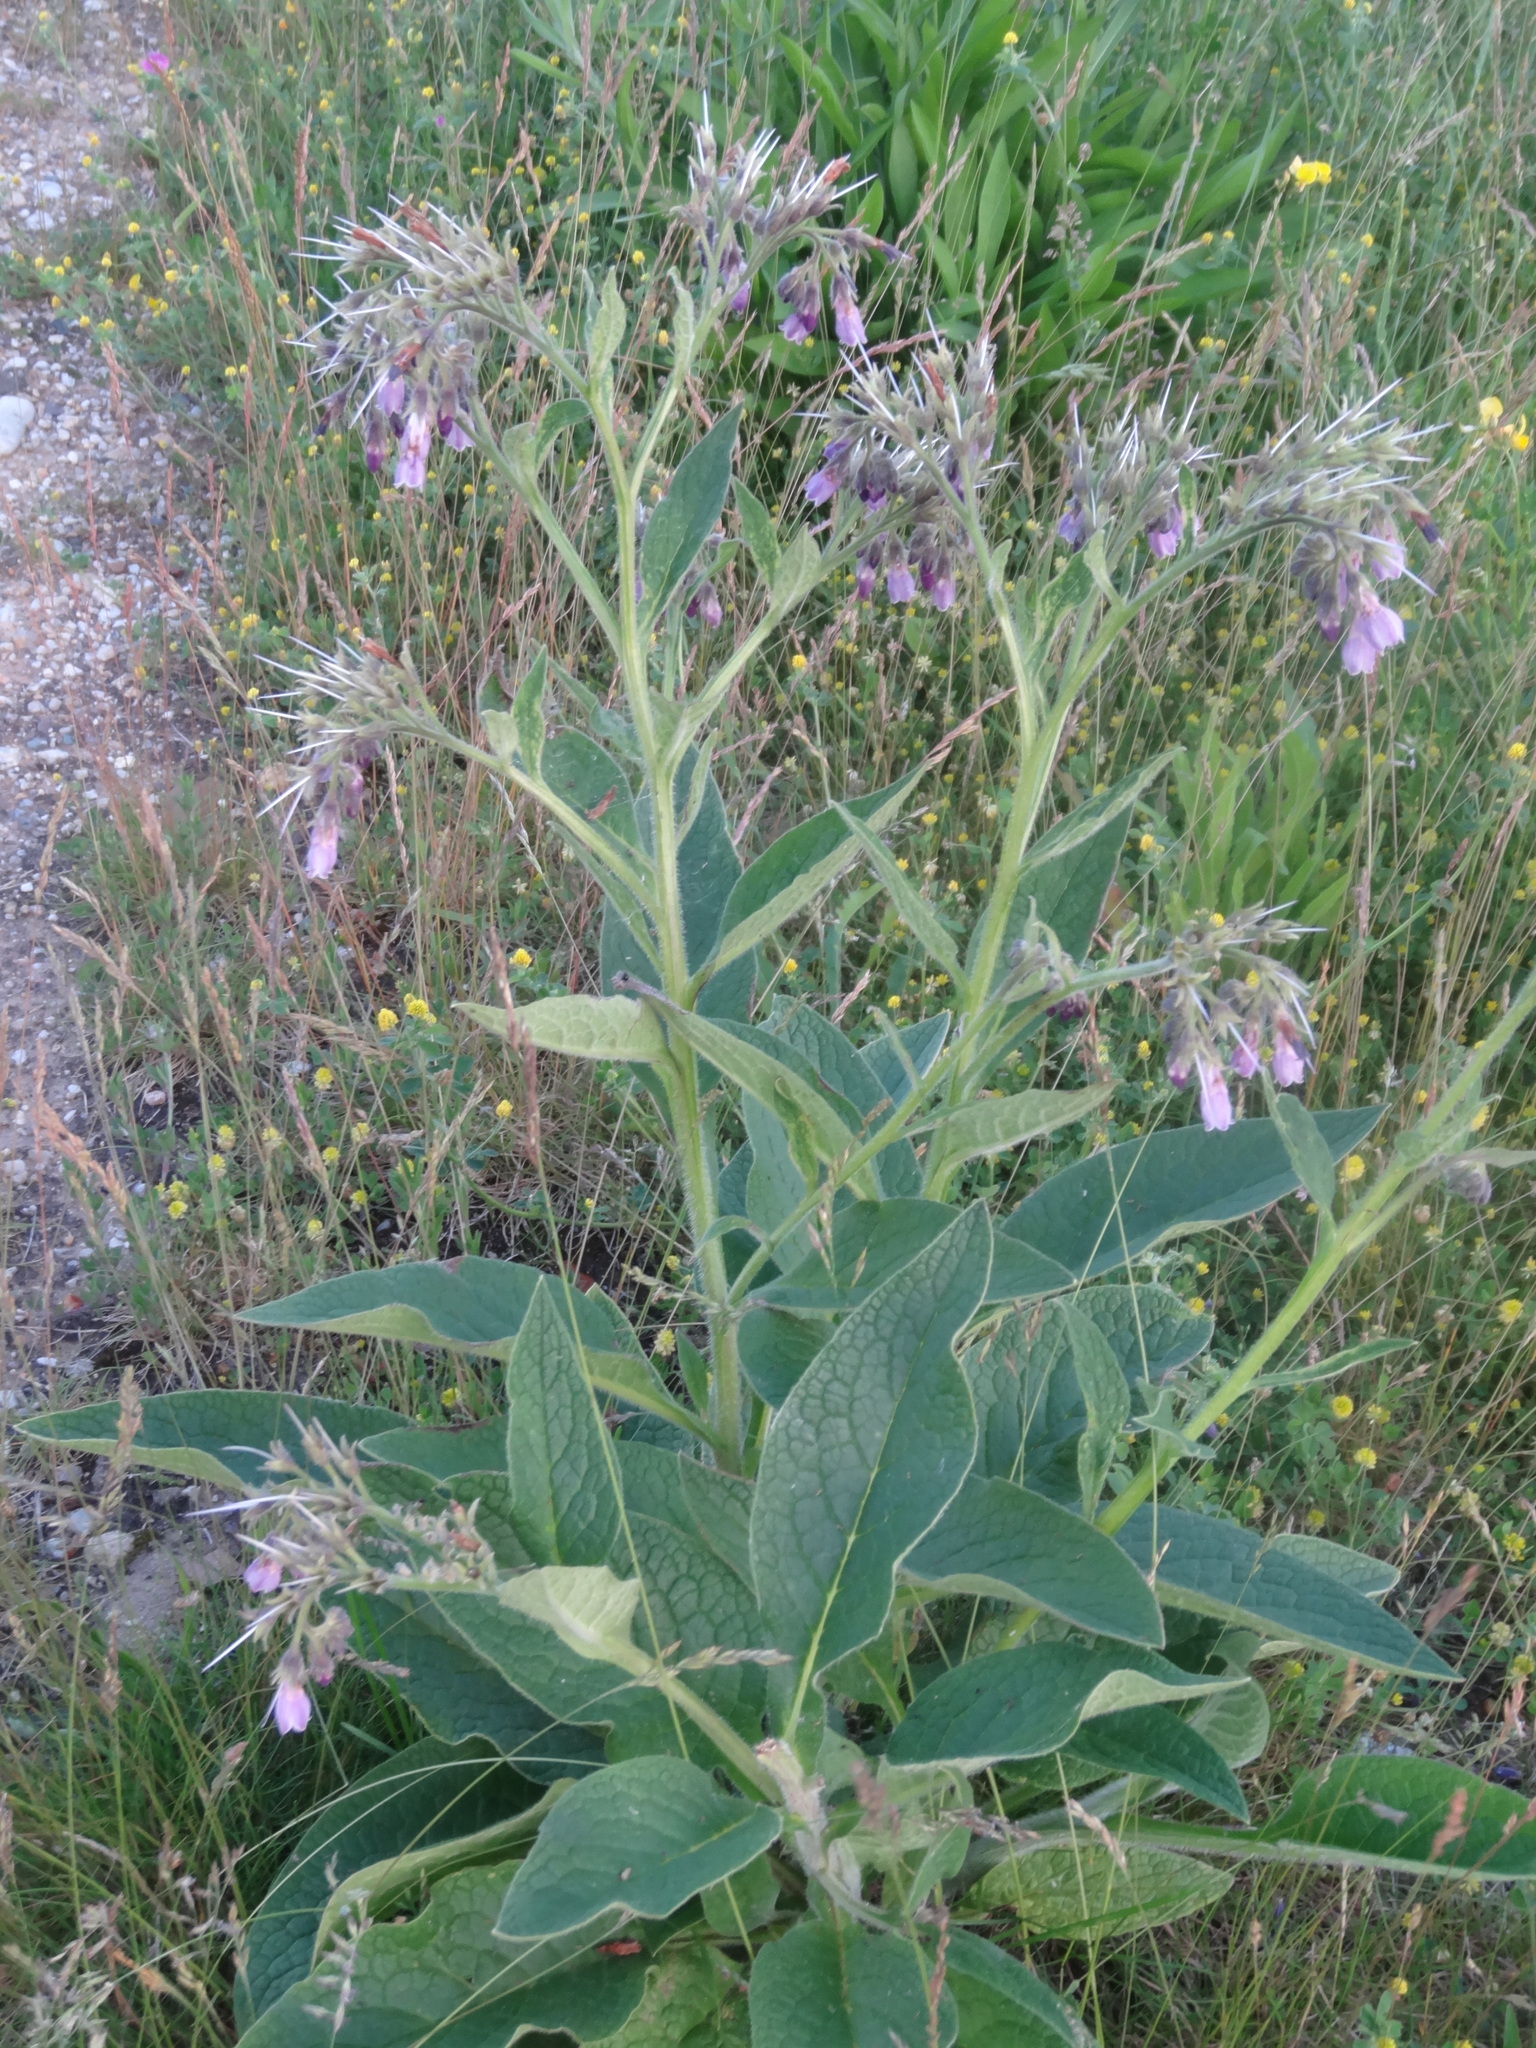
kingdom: Plantae
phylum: Tracheophyta
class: Magnoliopsida
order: Boraginales
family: Boraginaceae
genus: Symphytum
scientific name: Symphytum officinale
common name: Common comfrey
